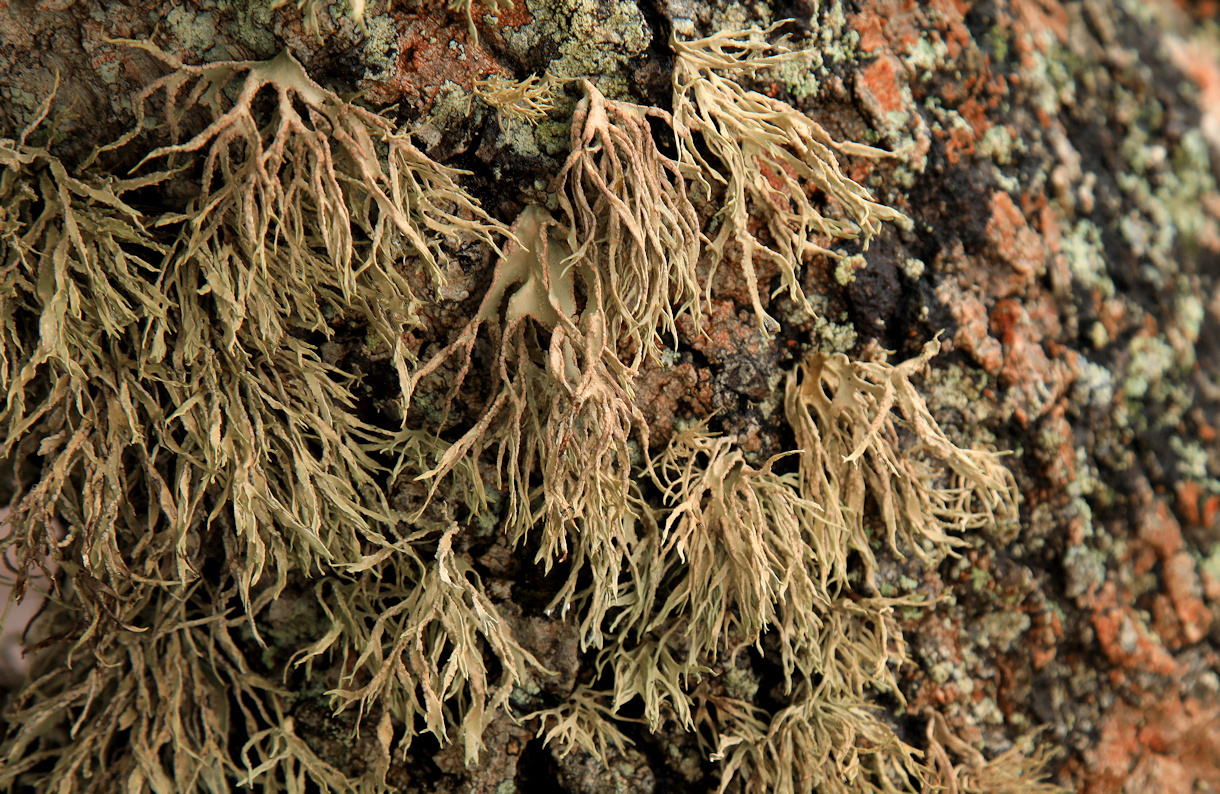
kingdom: Fungi
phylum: Ascomycota
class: Arthoniomycetes
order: Arthoniales
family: Roccellaceae
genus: Roccella
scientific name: Roccella montagnei
